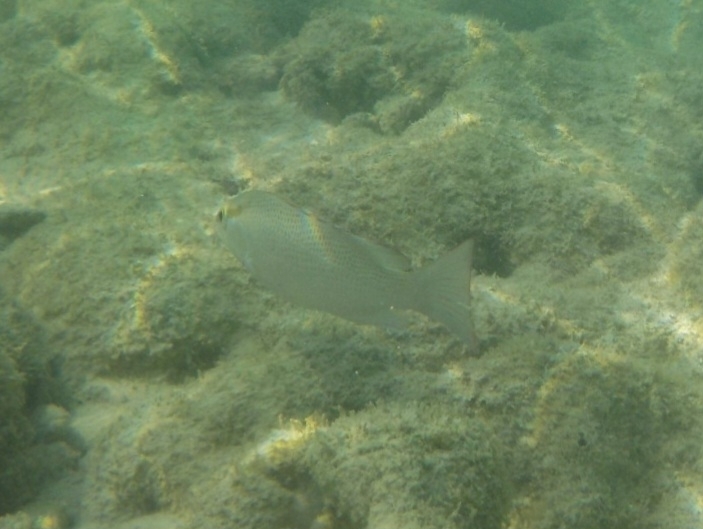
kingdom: Animalia
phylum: Chordata
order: Perciformes
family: Lutjanidae
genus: Lutjanus
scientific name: Lutjanus griseus
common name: Gray snapper
